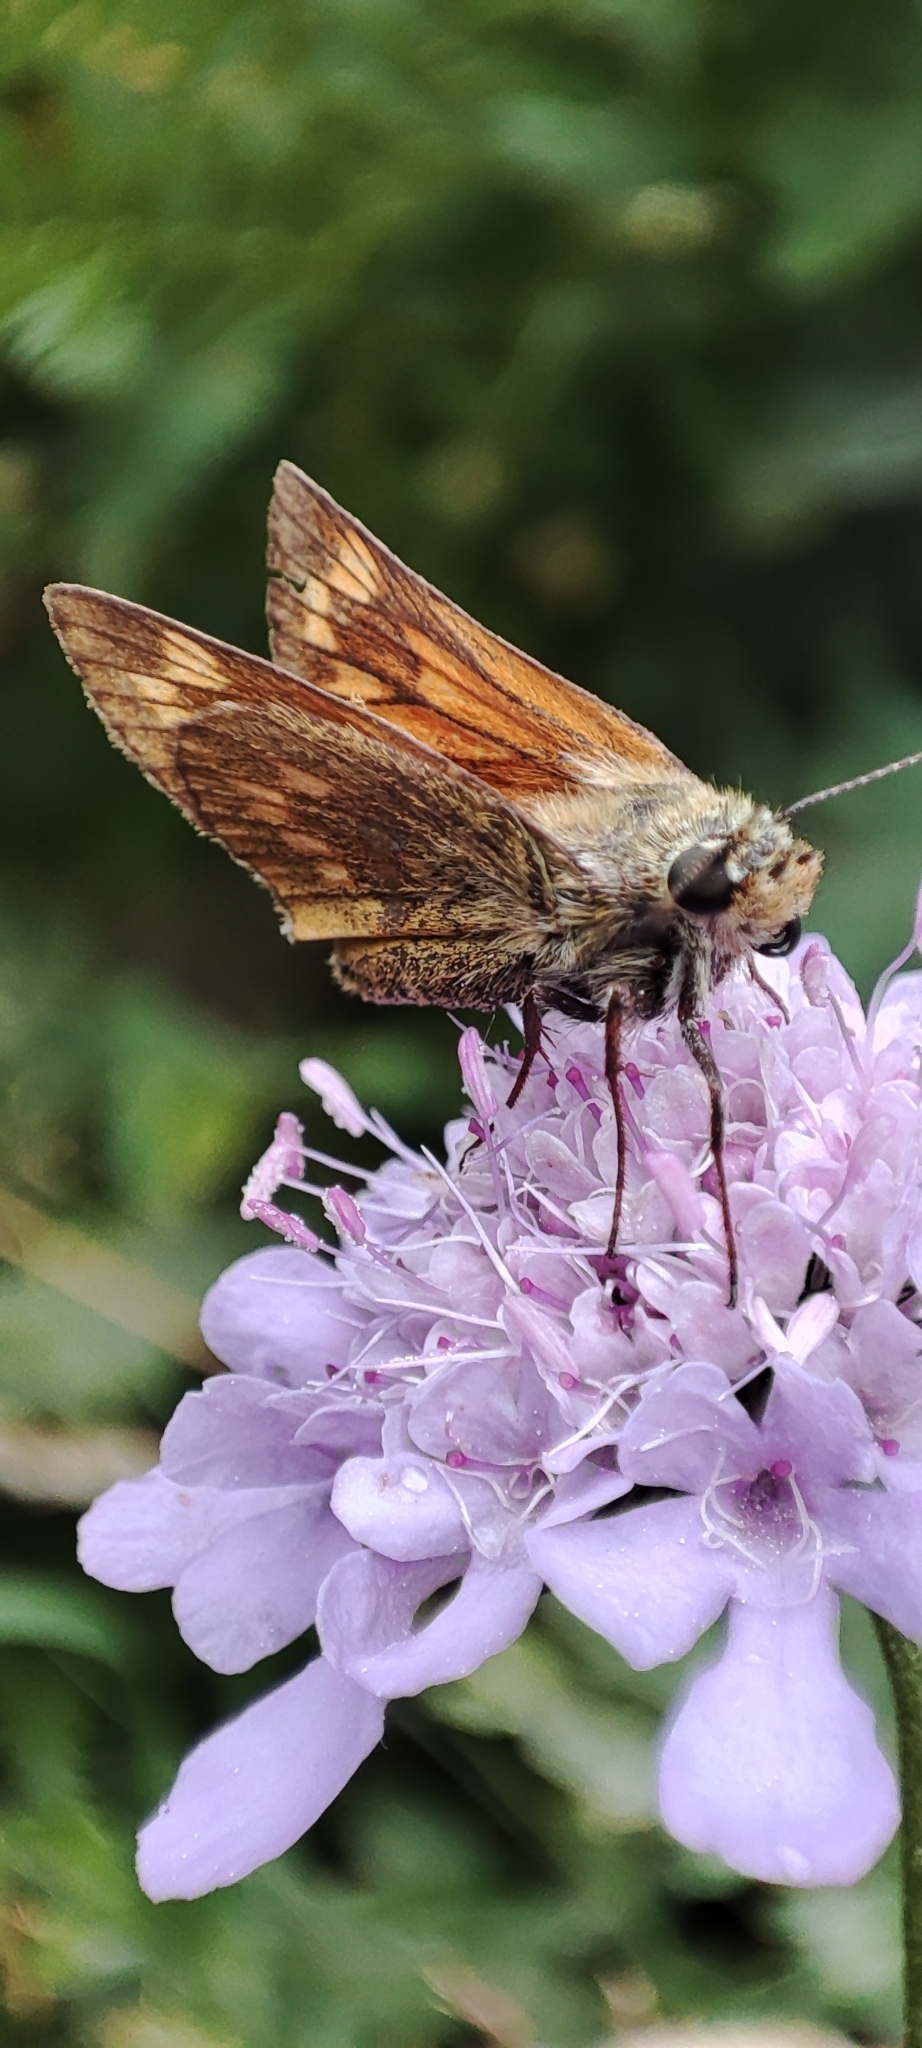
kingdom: Animalia
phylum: Arthropoda
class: Insecta
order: Lepidoptera
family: Hesperiidae
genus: Ochlodes
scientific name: Ochlodes venata
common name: Large skipper
